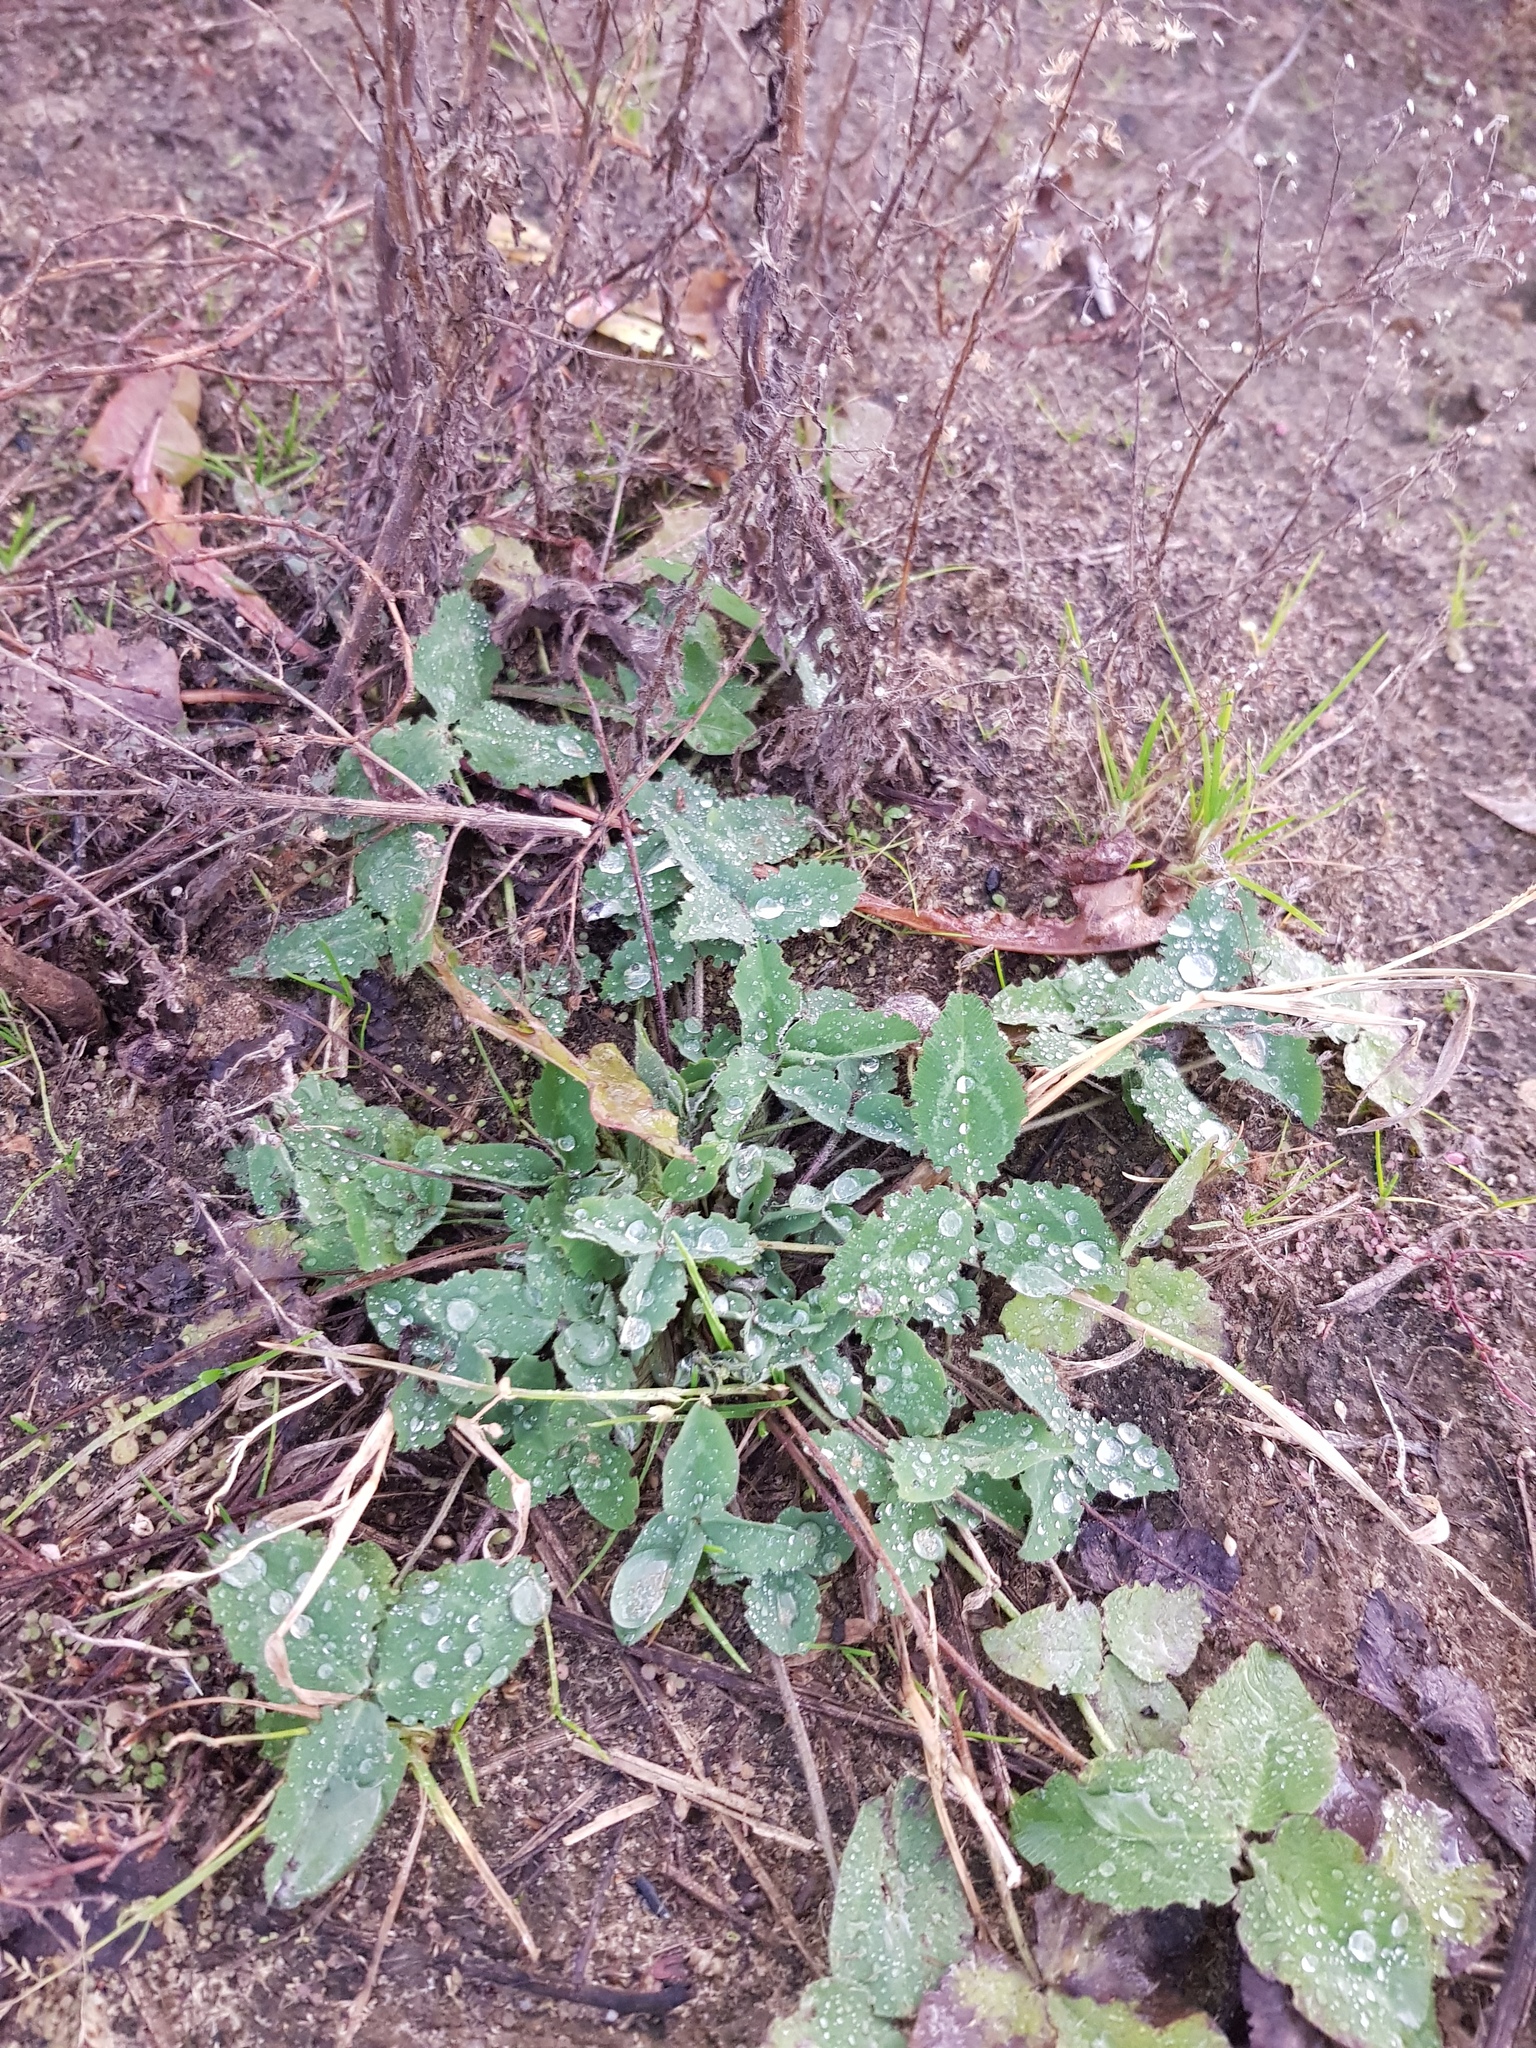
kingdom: Plantae
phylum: Tracheophyta
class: Magnoliopsida
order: Fabales
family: Fabaceae
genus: Trifolium
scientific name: Trifolium pratense
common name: Red clover
